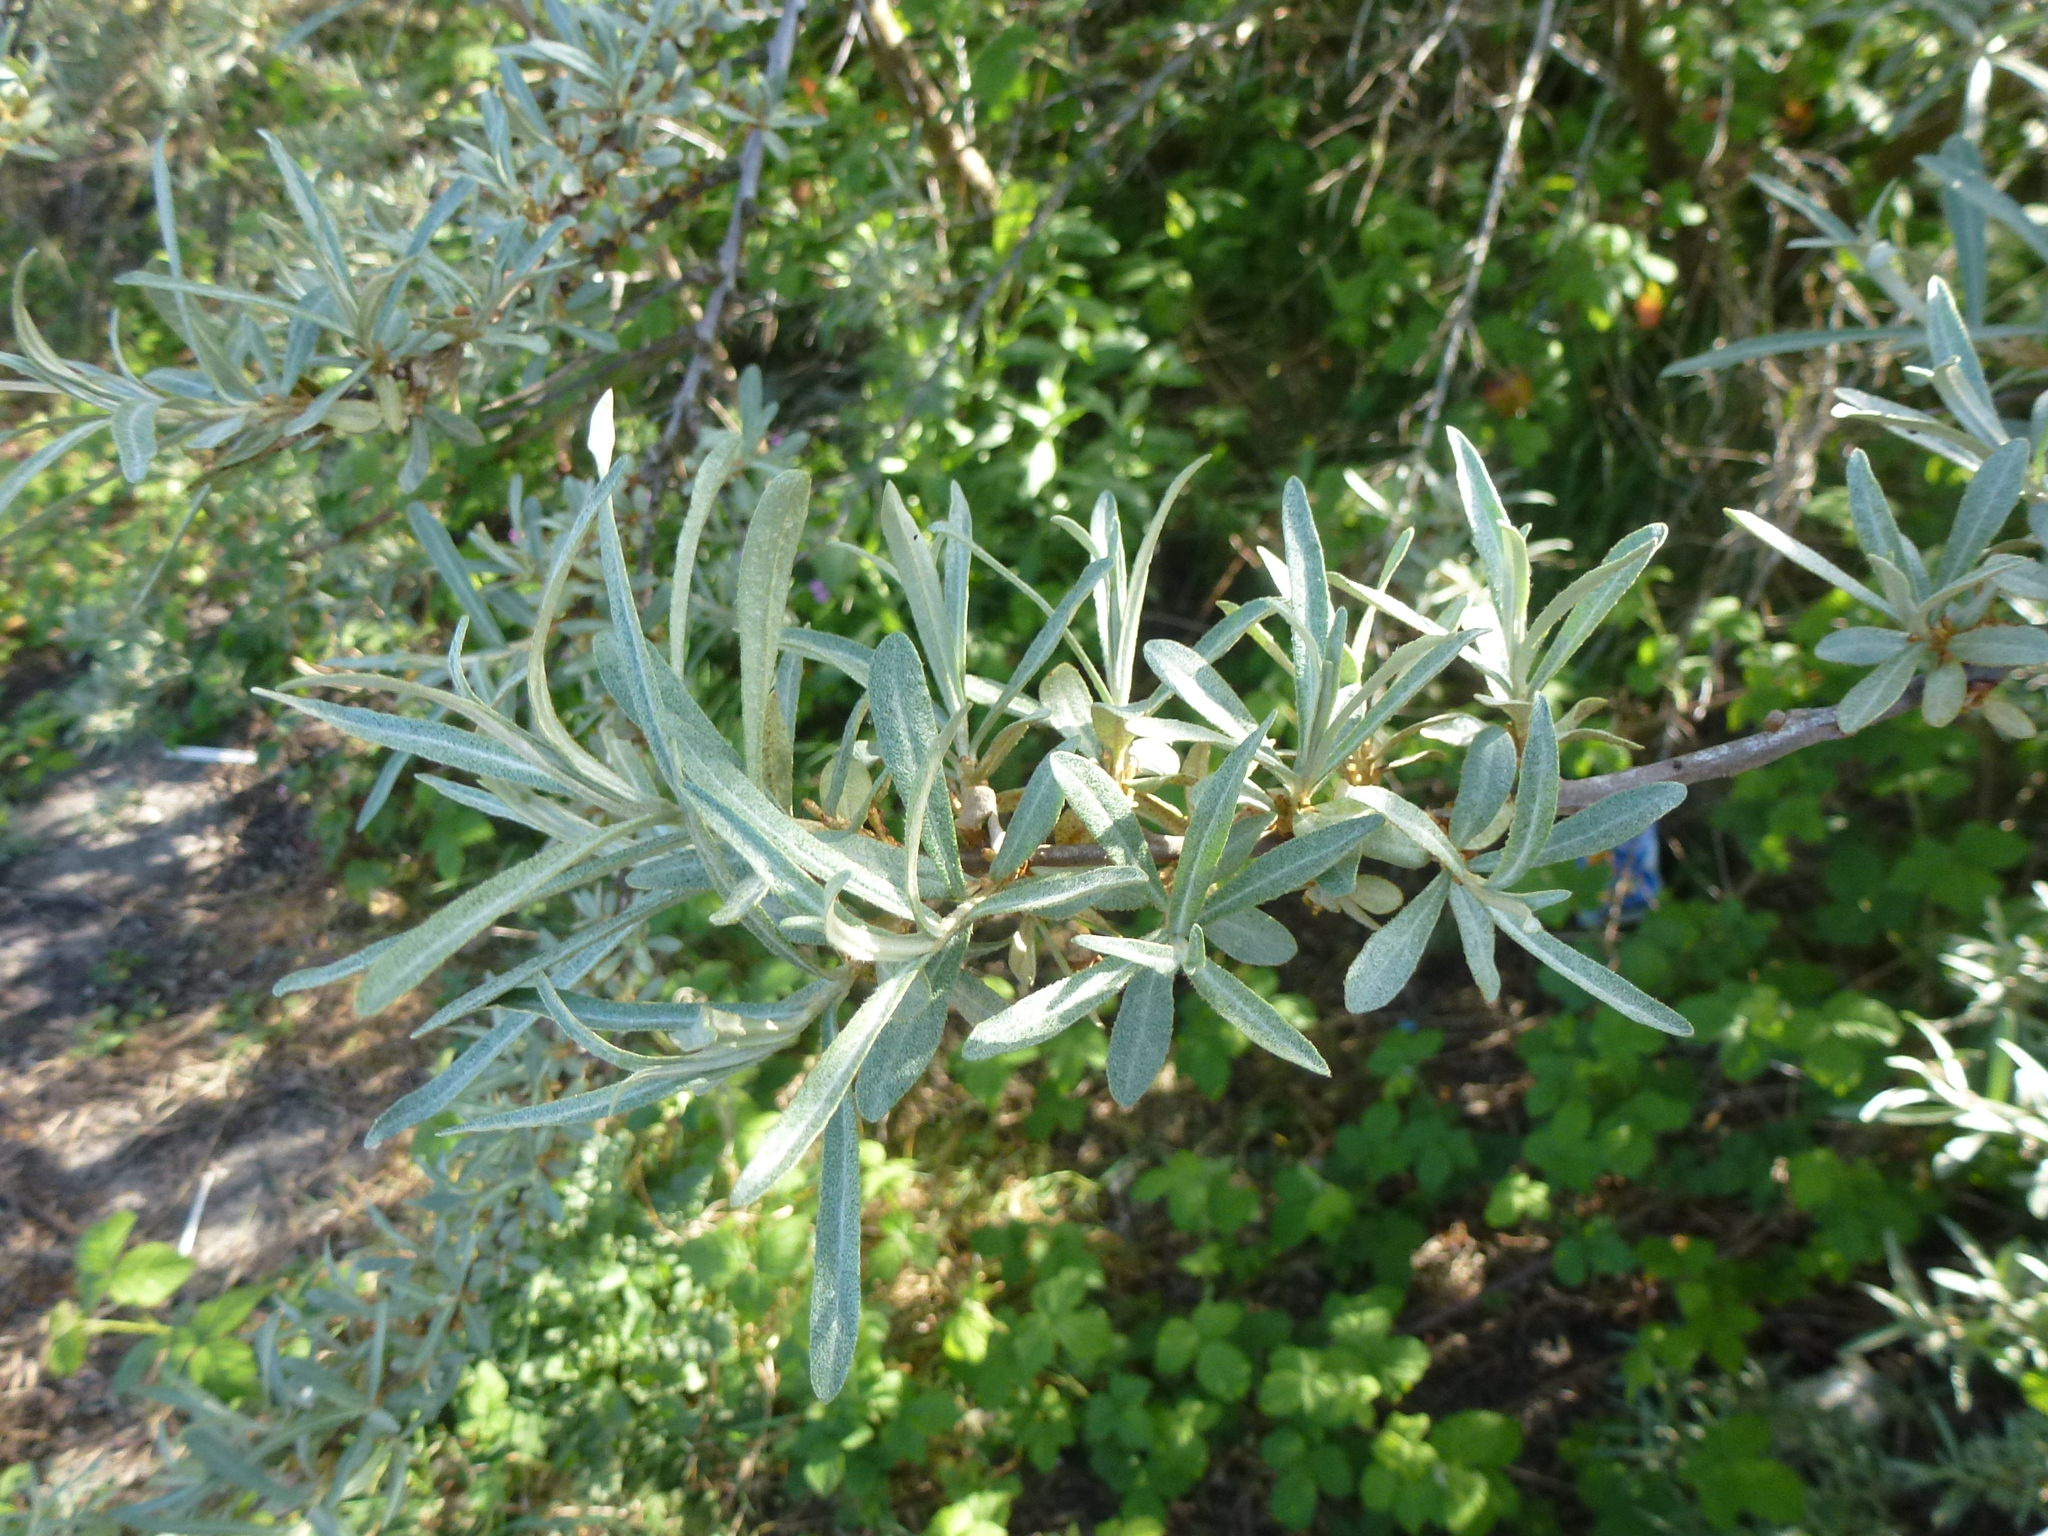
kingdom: Plantae
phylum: Tracheophyta
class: Magnoliopsida
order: Rosales
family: Elaeagnaceae
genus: Hippophae
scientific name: Hippophae rhamnoides
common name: Sea-buckthorn
